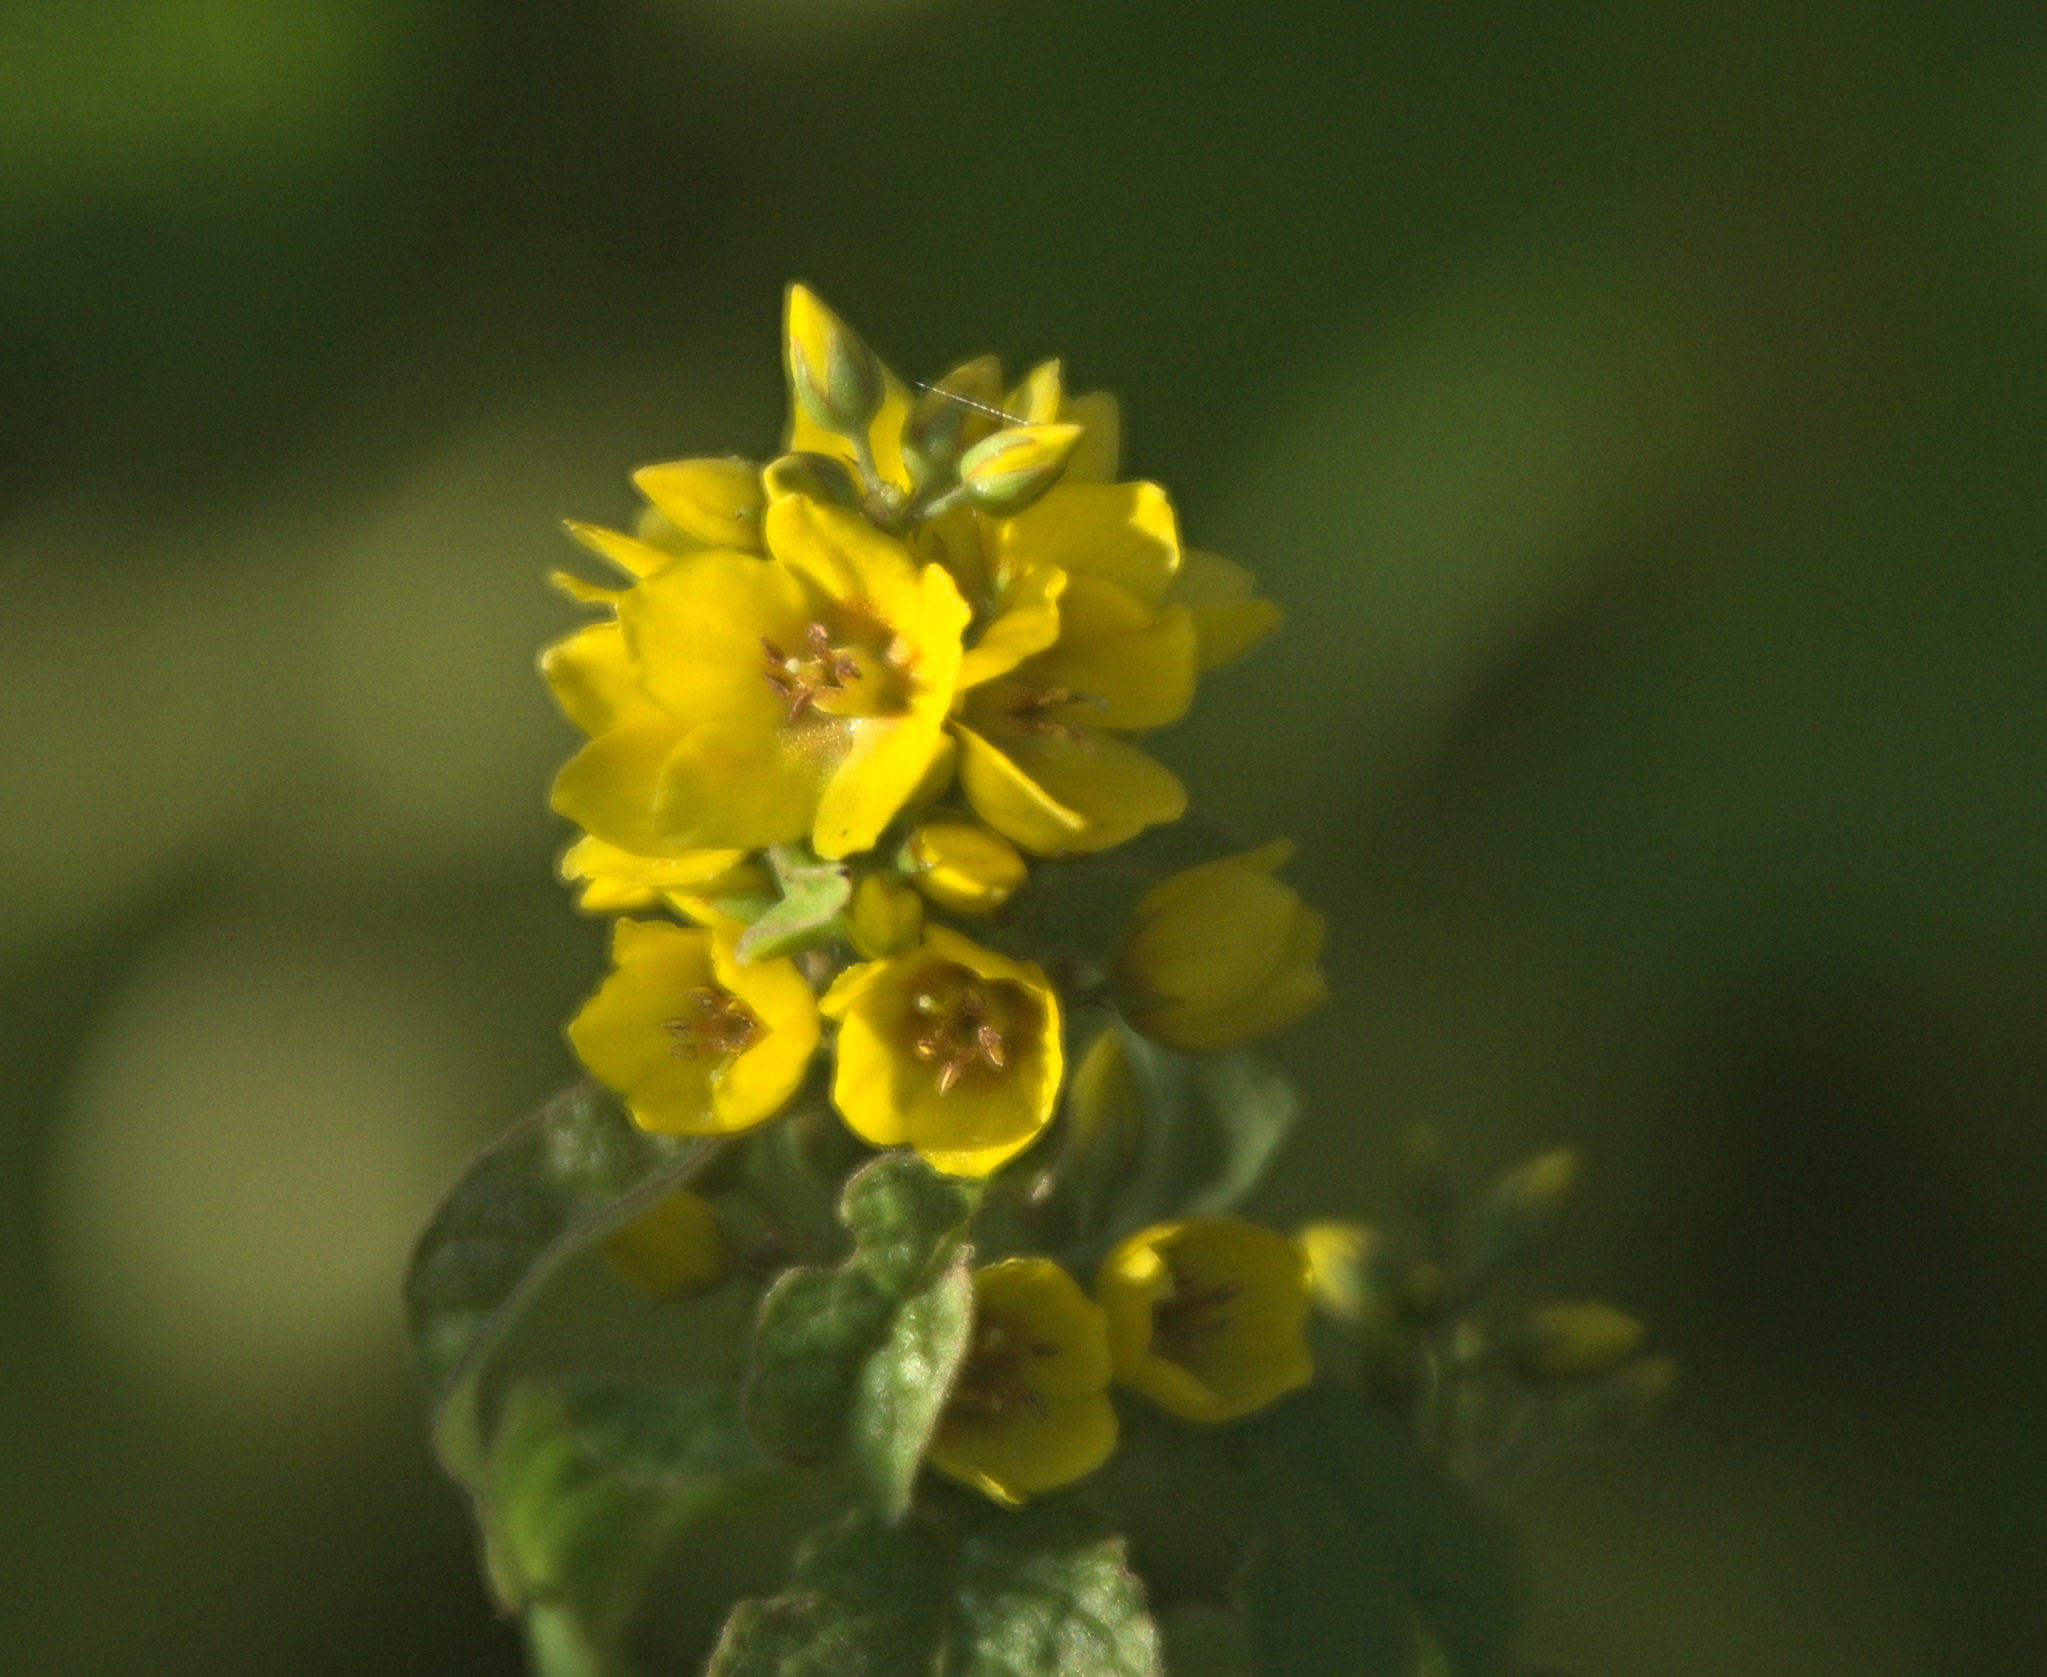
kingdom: Plantae
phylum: Tracheophyta
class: Magnoliopsida
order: Ericales
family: Primulaceae
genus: Lysimachia
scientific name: Lysimachia vulgaris
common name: Yellow loosestrife
